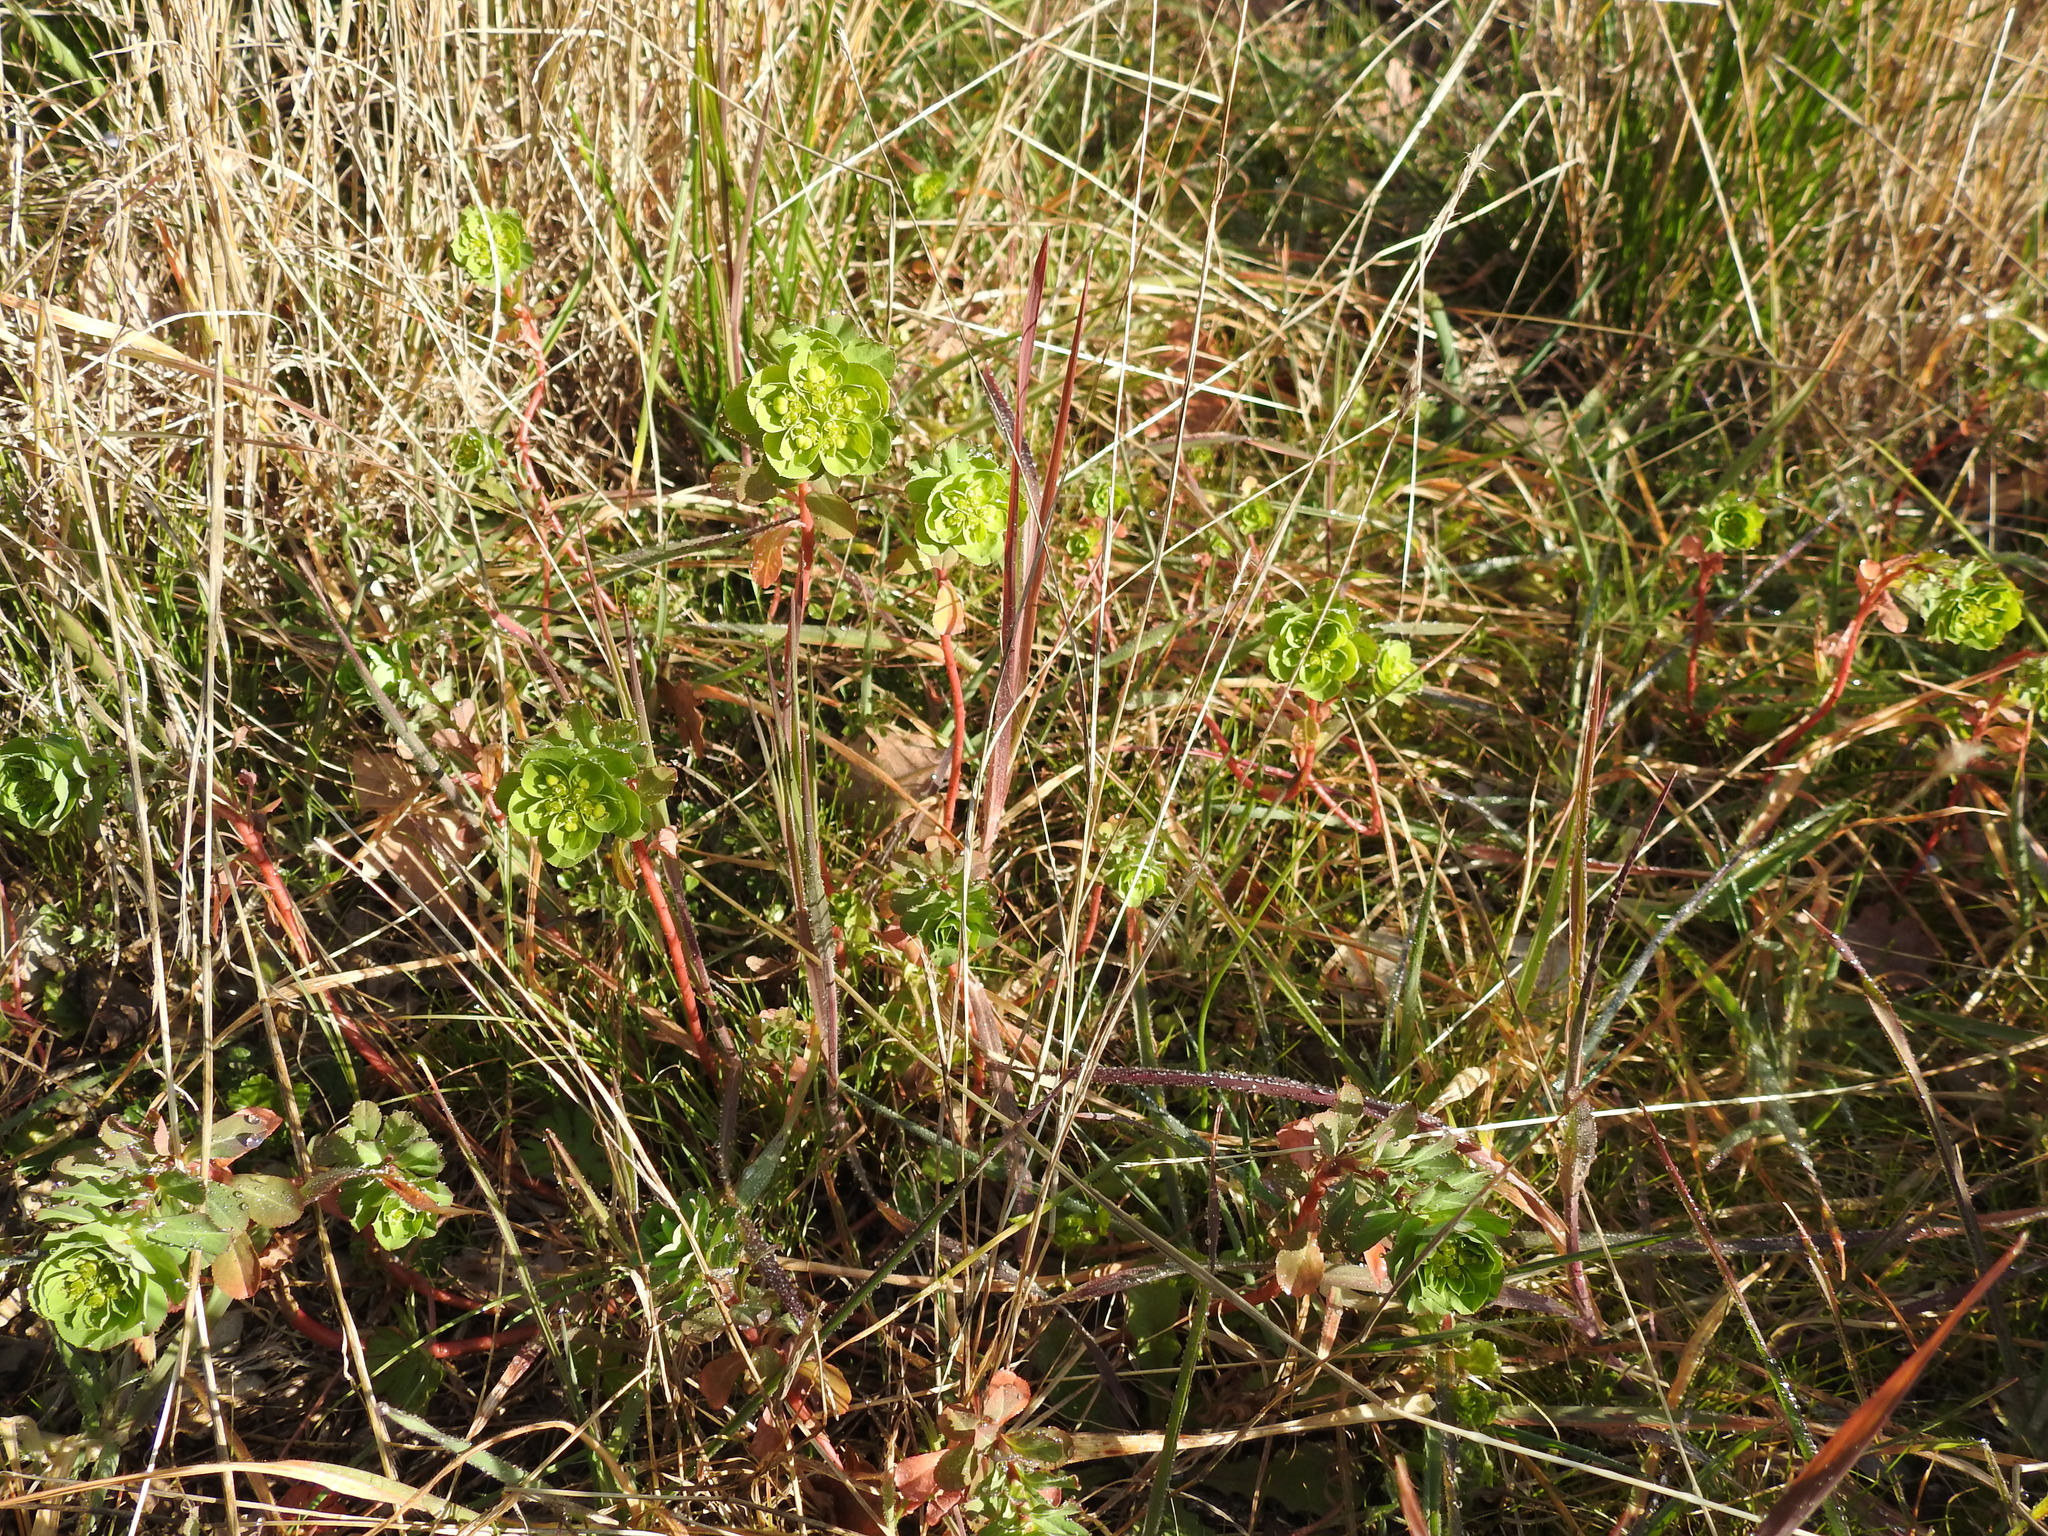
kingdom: Plantae
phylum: Tracheophyta
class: Magnoliopsida
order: Malpighiales
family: Euphorbiaceae
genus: Euphorbia
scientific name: Euphorbia helioscopia
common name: Sun spurge
